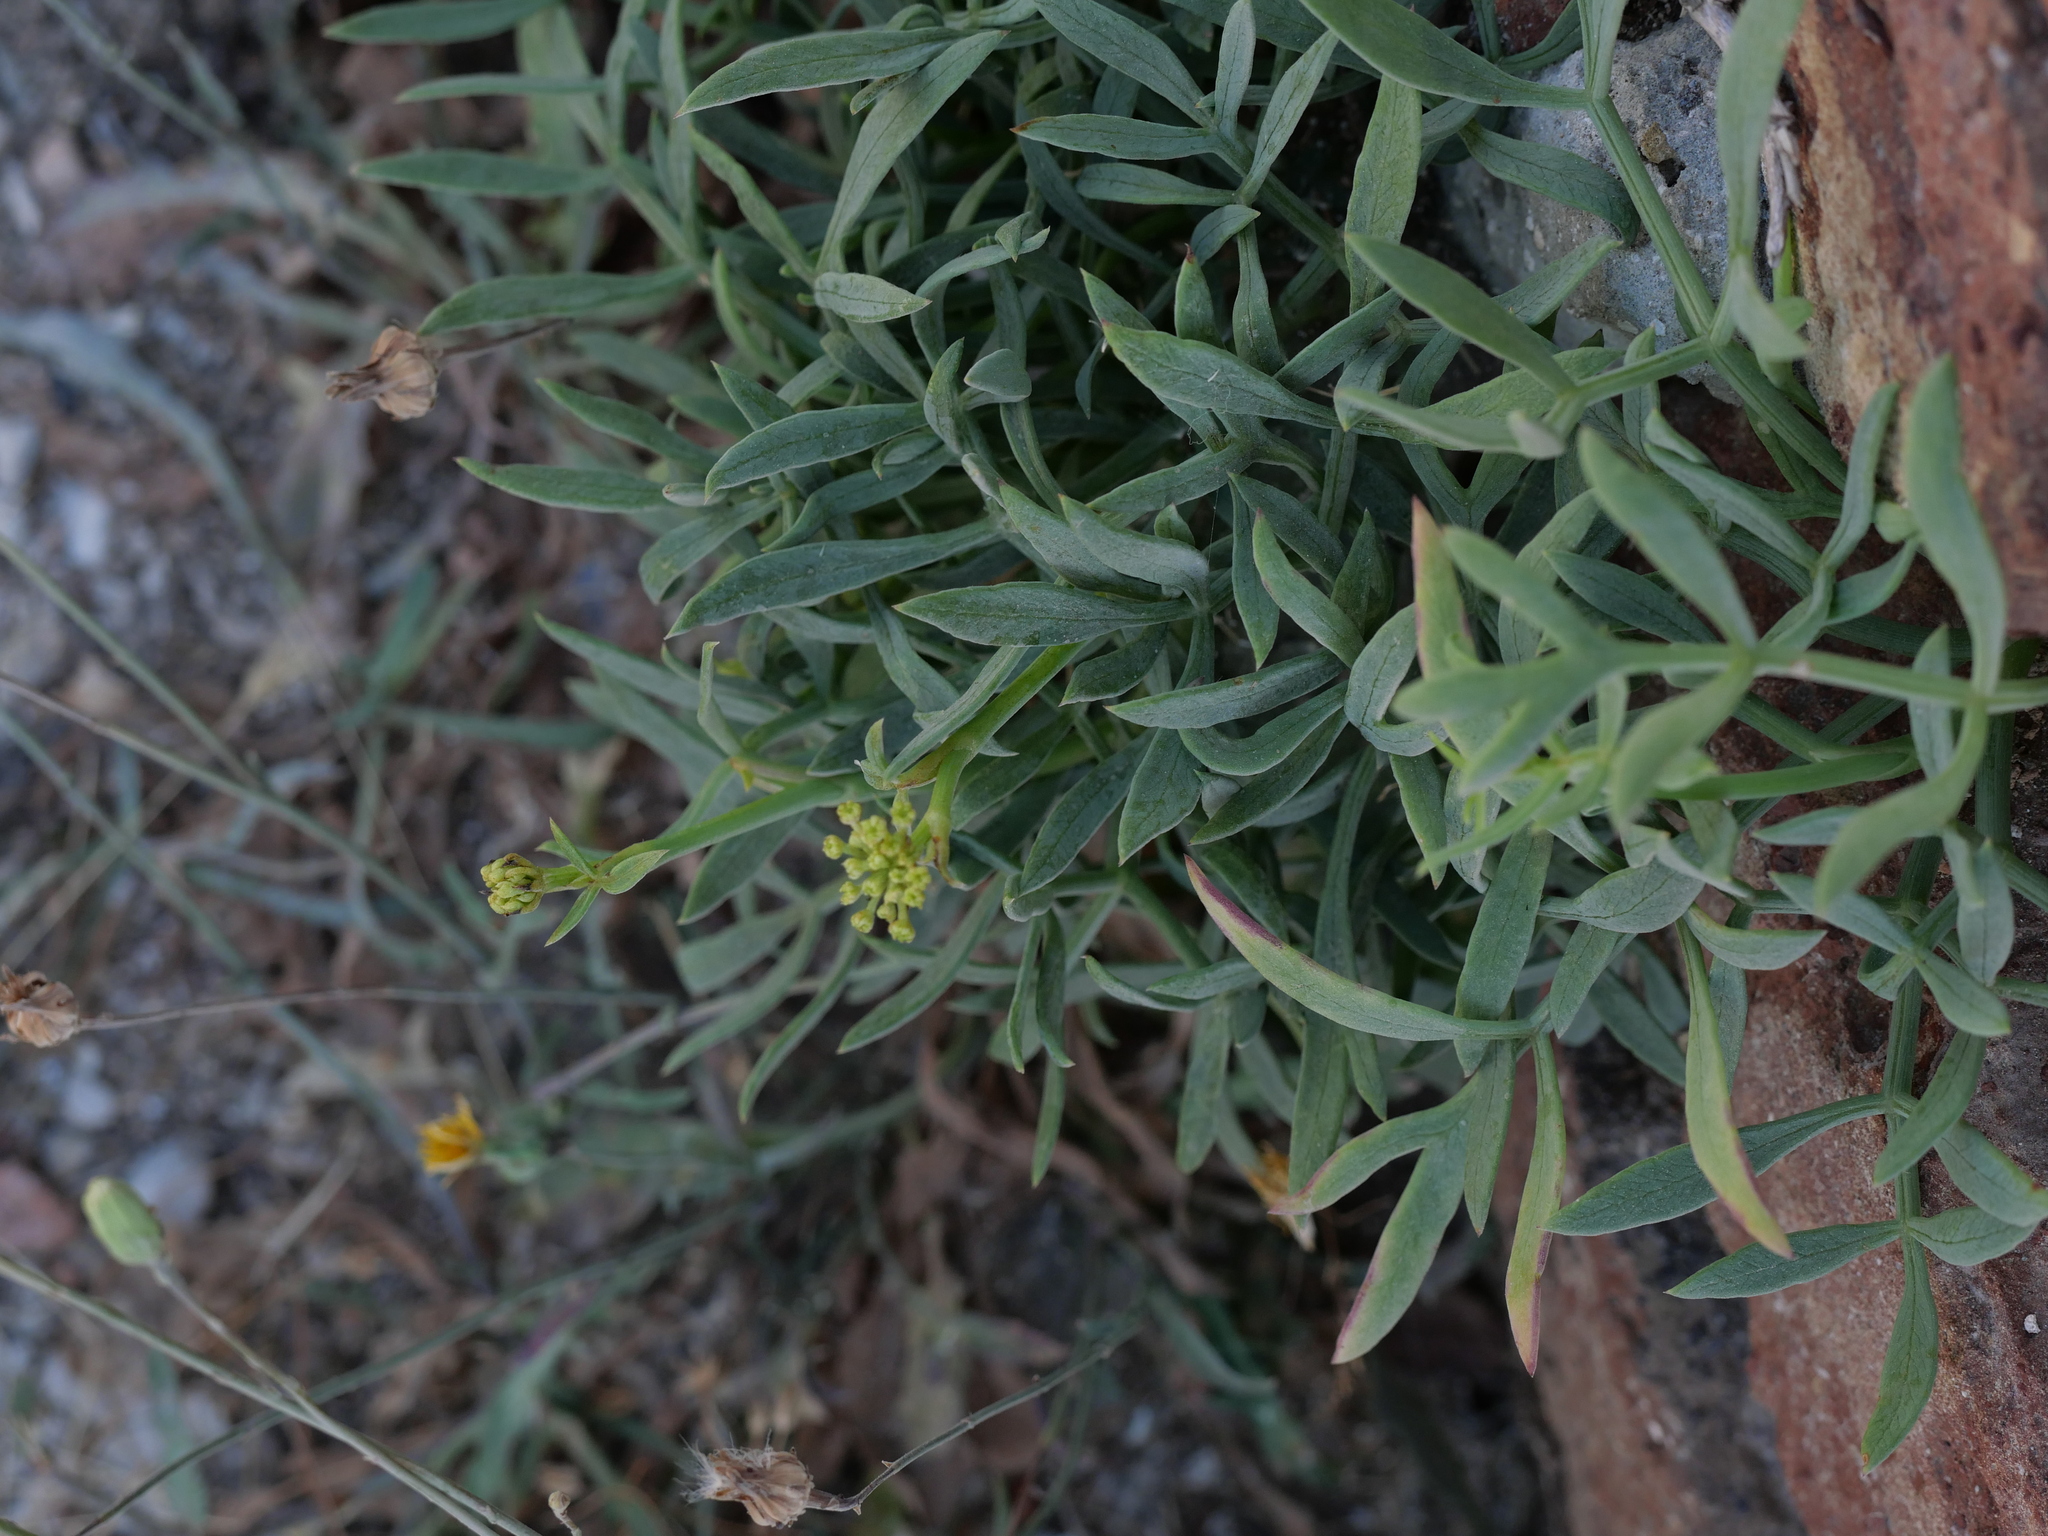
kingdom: Plantae
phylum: Tracheophyta
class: Magnoliopsida
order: Apiales
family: Apiaceae
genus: Crithmum
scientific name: Crithmum maritimum
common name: Rock samphire
